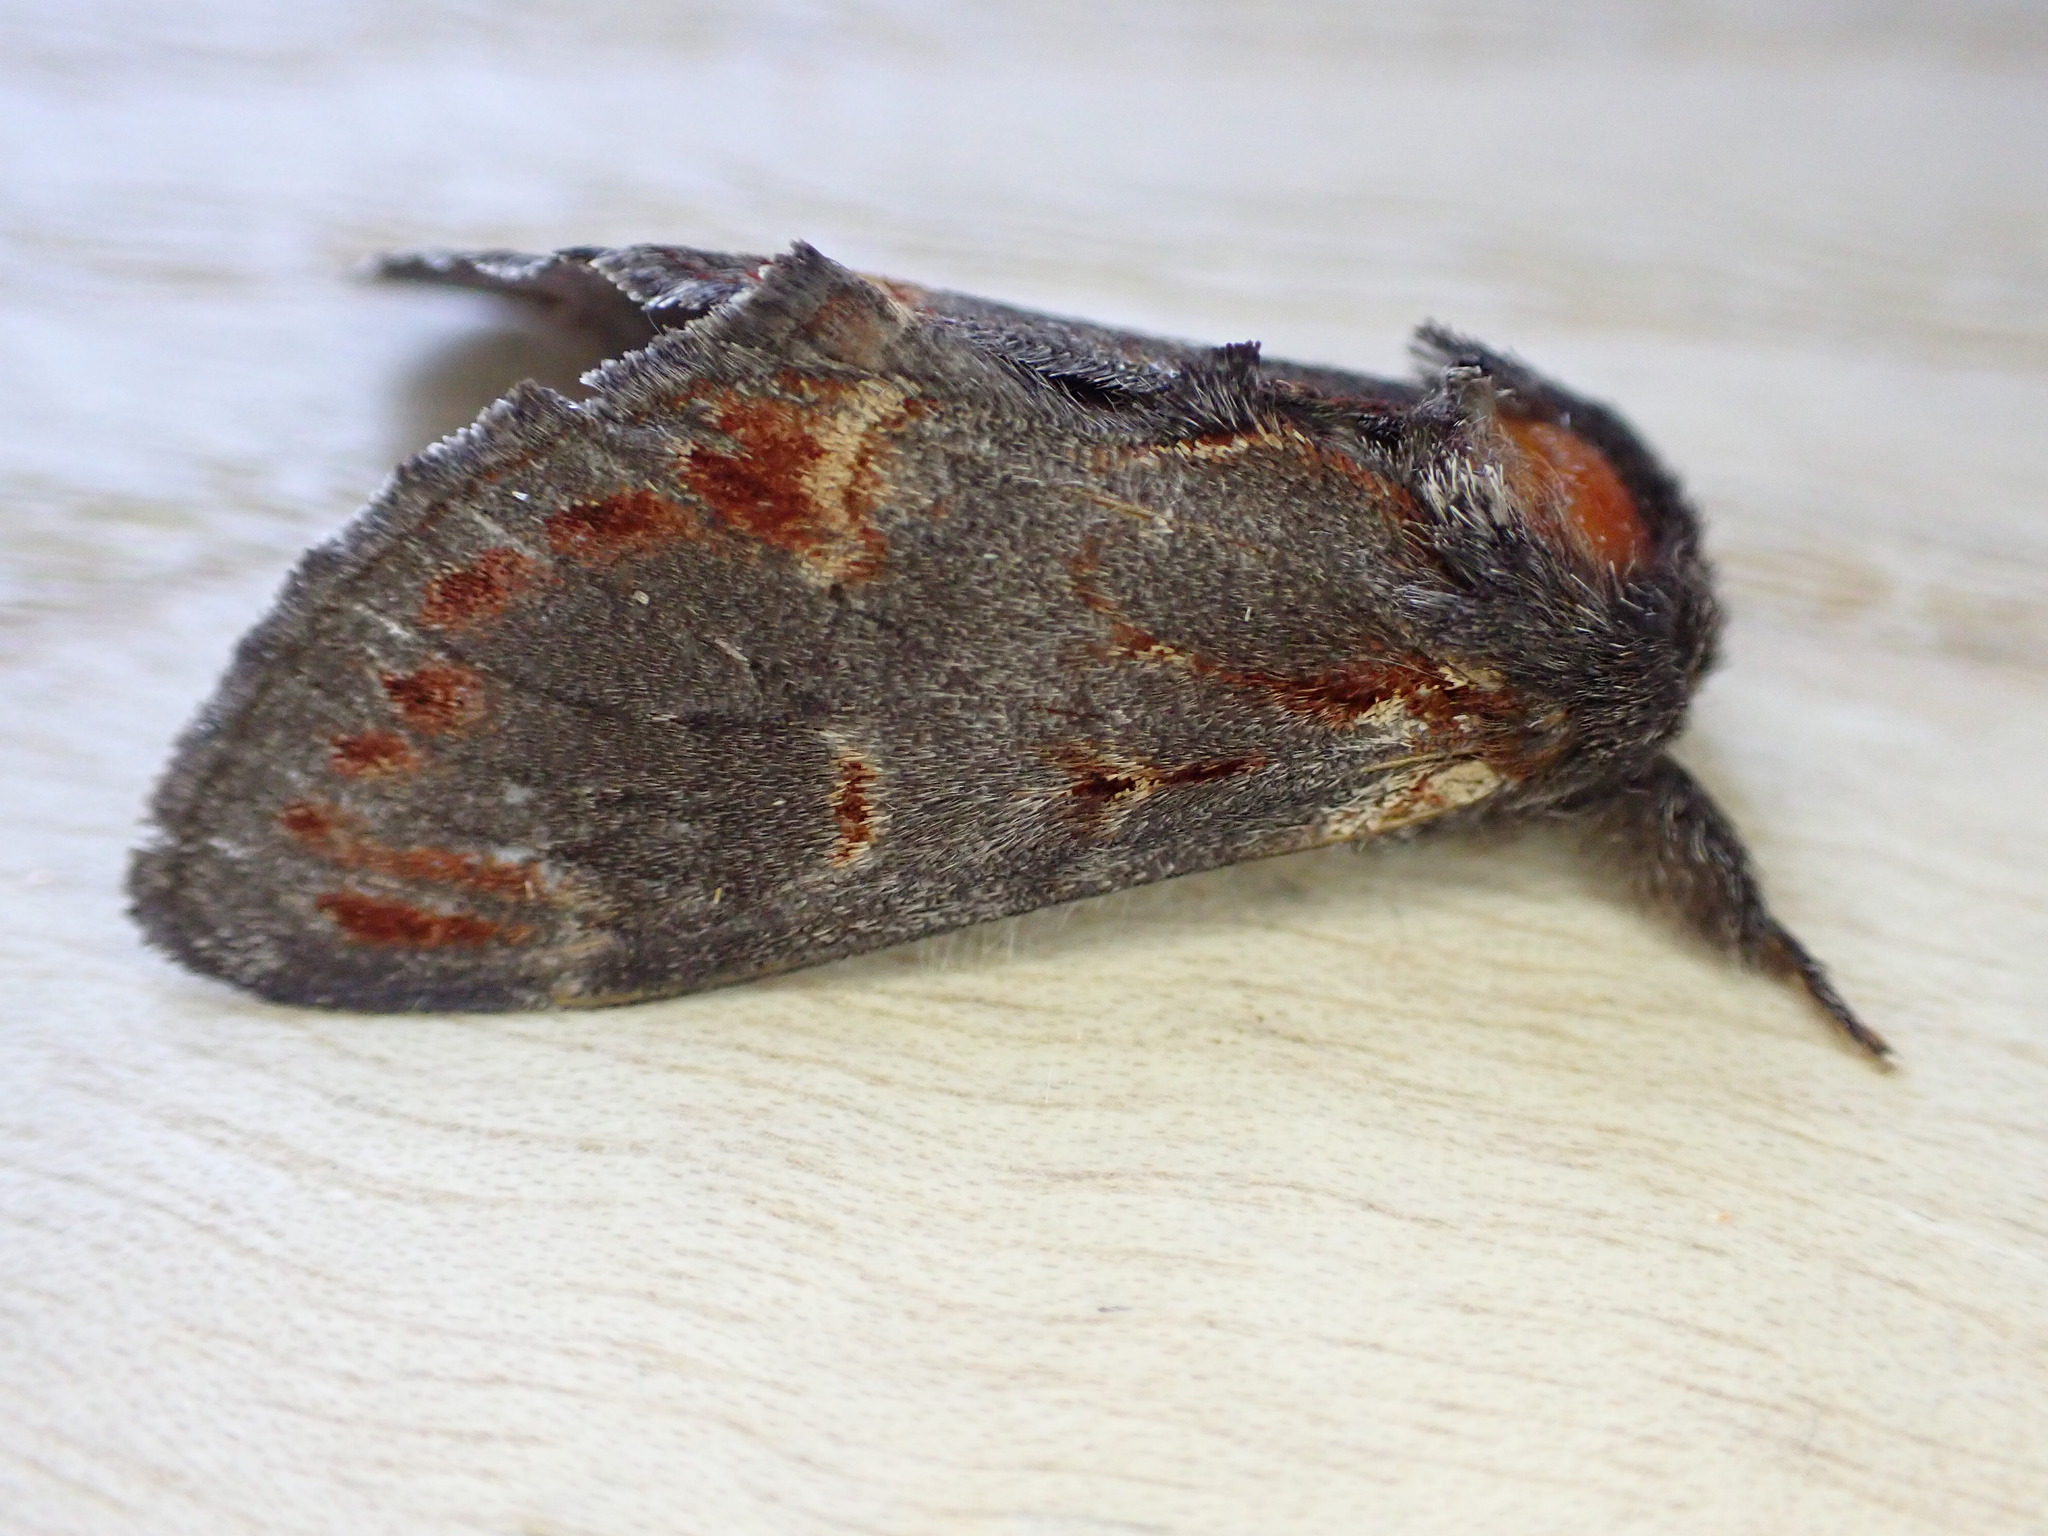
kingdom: Animalia
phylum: Arthropoda
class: Insecta
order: Lepidoptera
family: Notodontidae
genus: Notodonta
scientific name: Notodonta dromedarius
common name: Iron prominent
